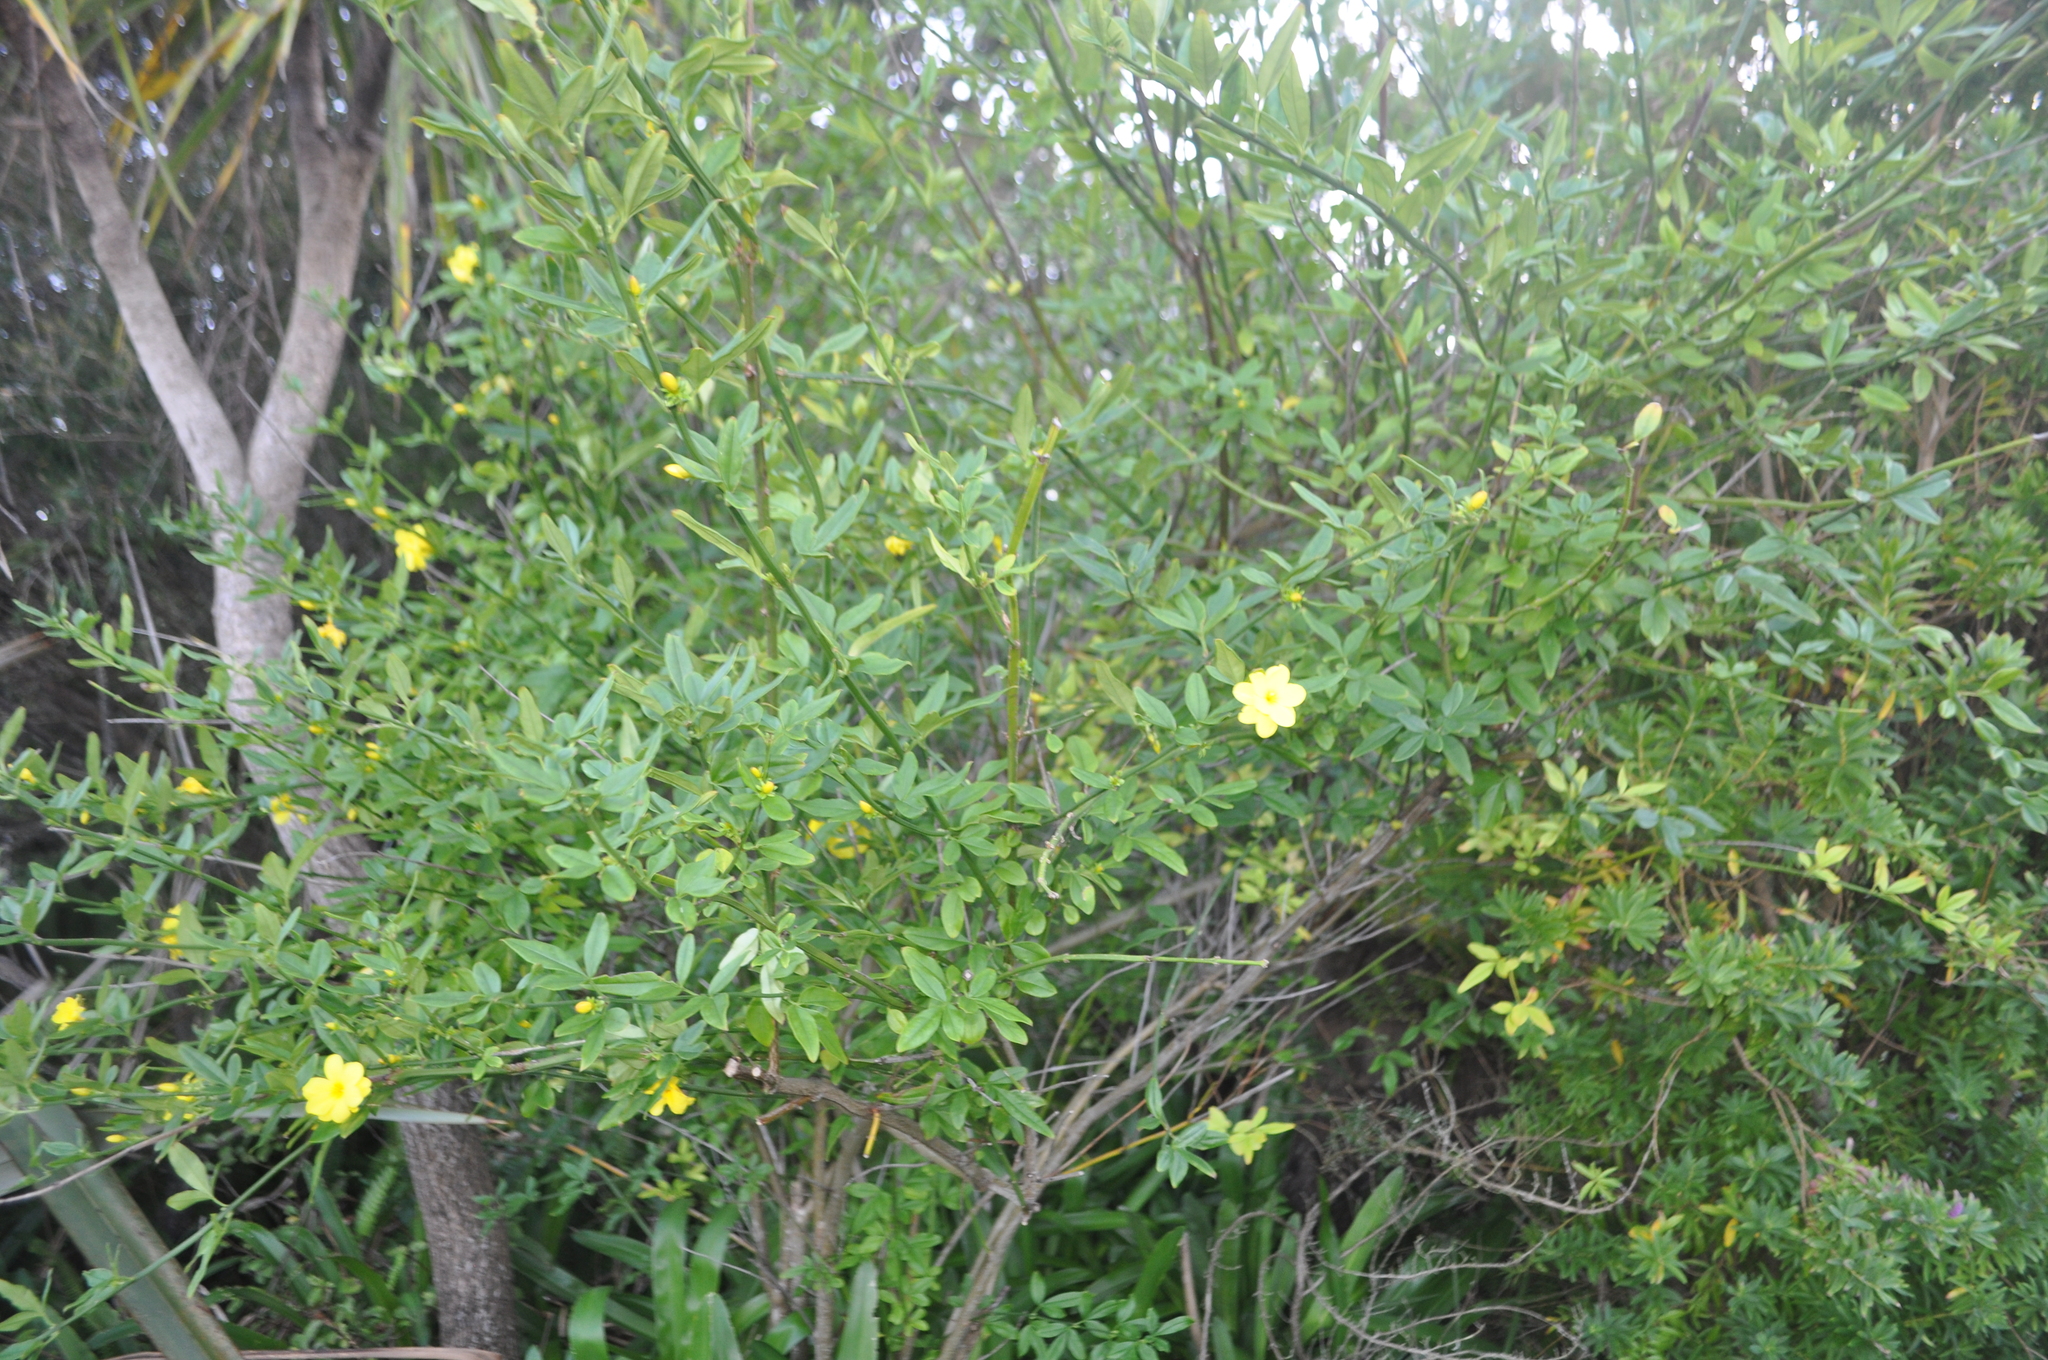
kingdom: Plantae
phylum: Tracheophyta
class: Magnoliopsida
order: Lamiales
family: Oleaceae
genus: Jasminum
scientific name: Jasminum mesnyi
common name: Japanese jasmine
